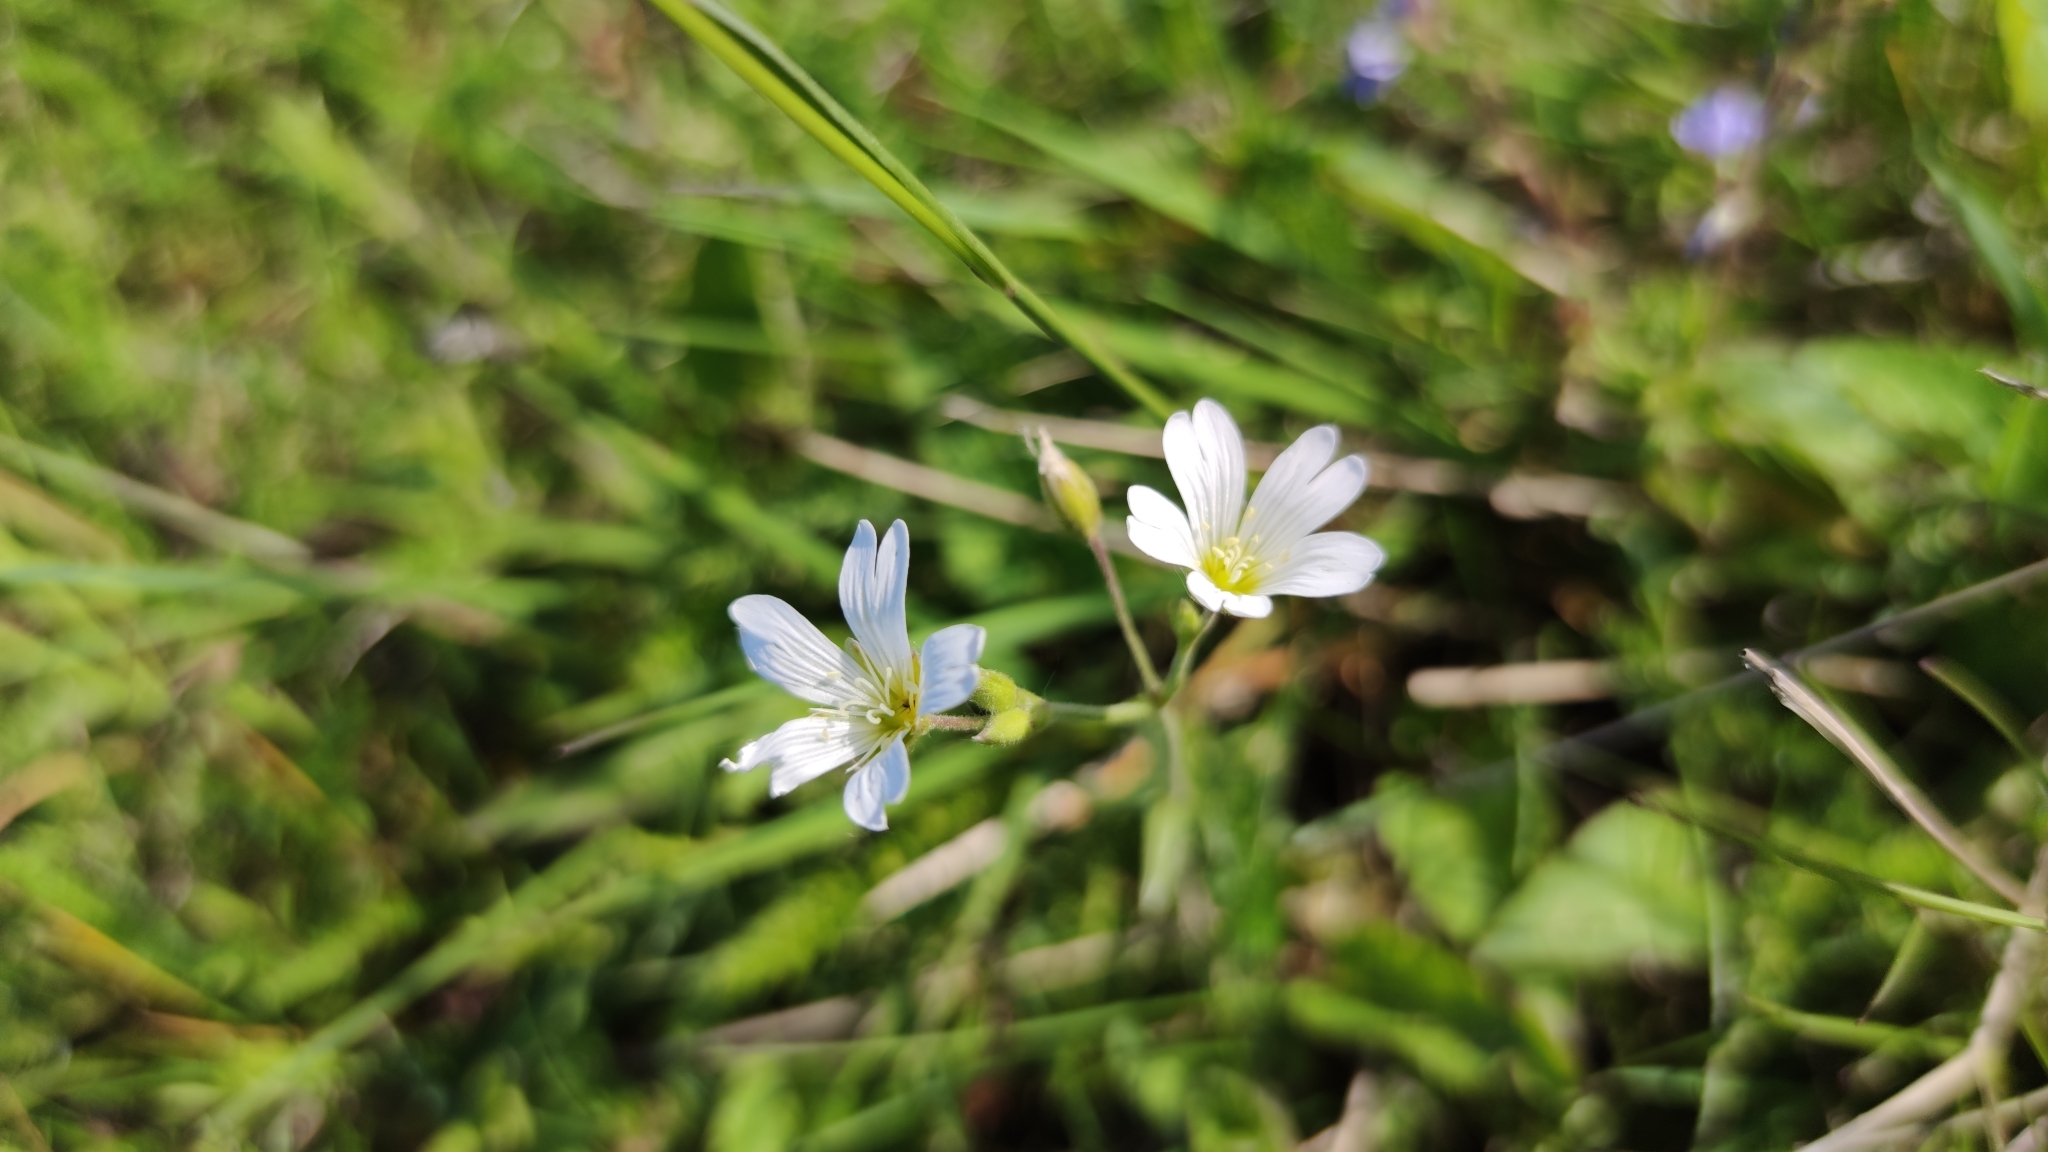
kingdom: Plantae
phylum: Tracheophyta
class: Magnoliopsida
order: Caryophyllales
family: Caryophyllaceae
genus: Cerastium
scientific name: Cerastium arvense
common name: Field mouse-ear
